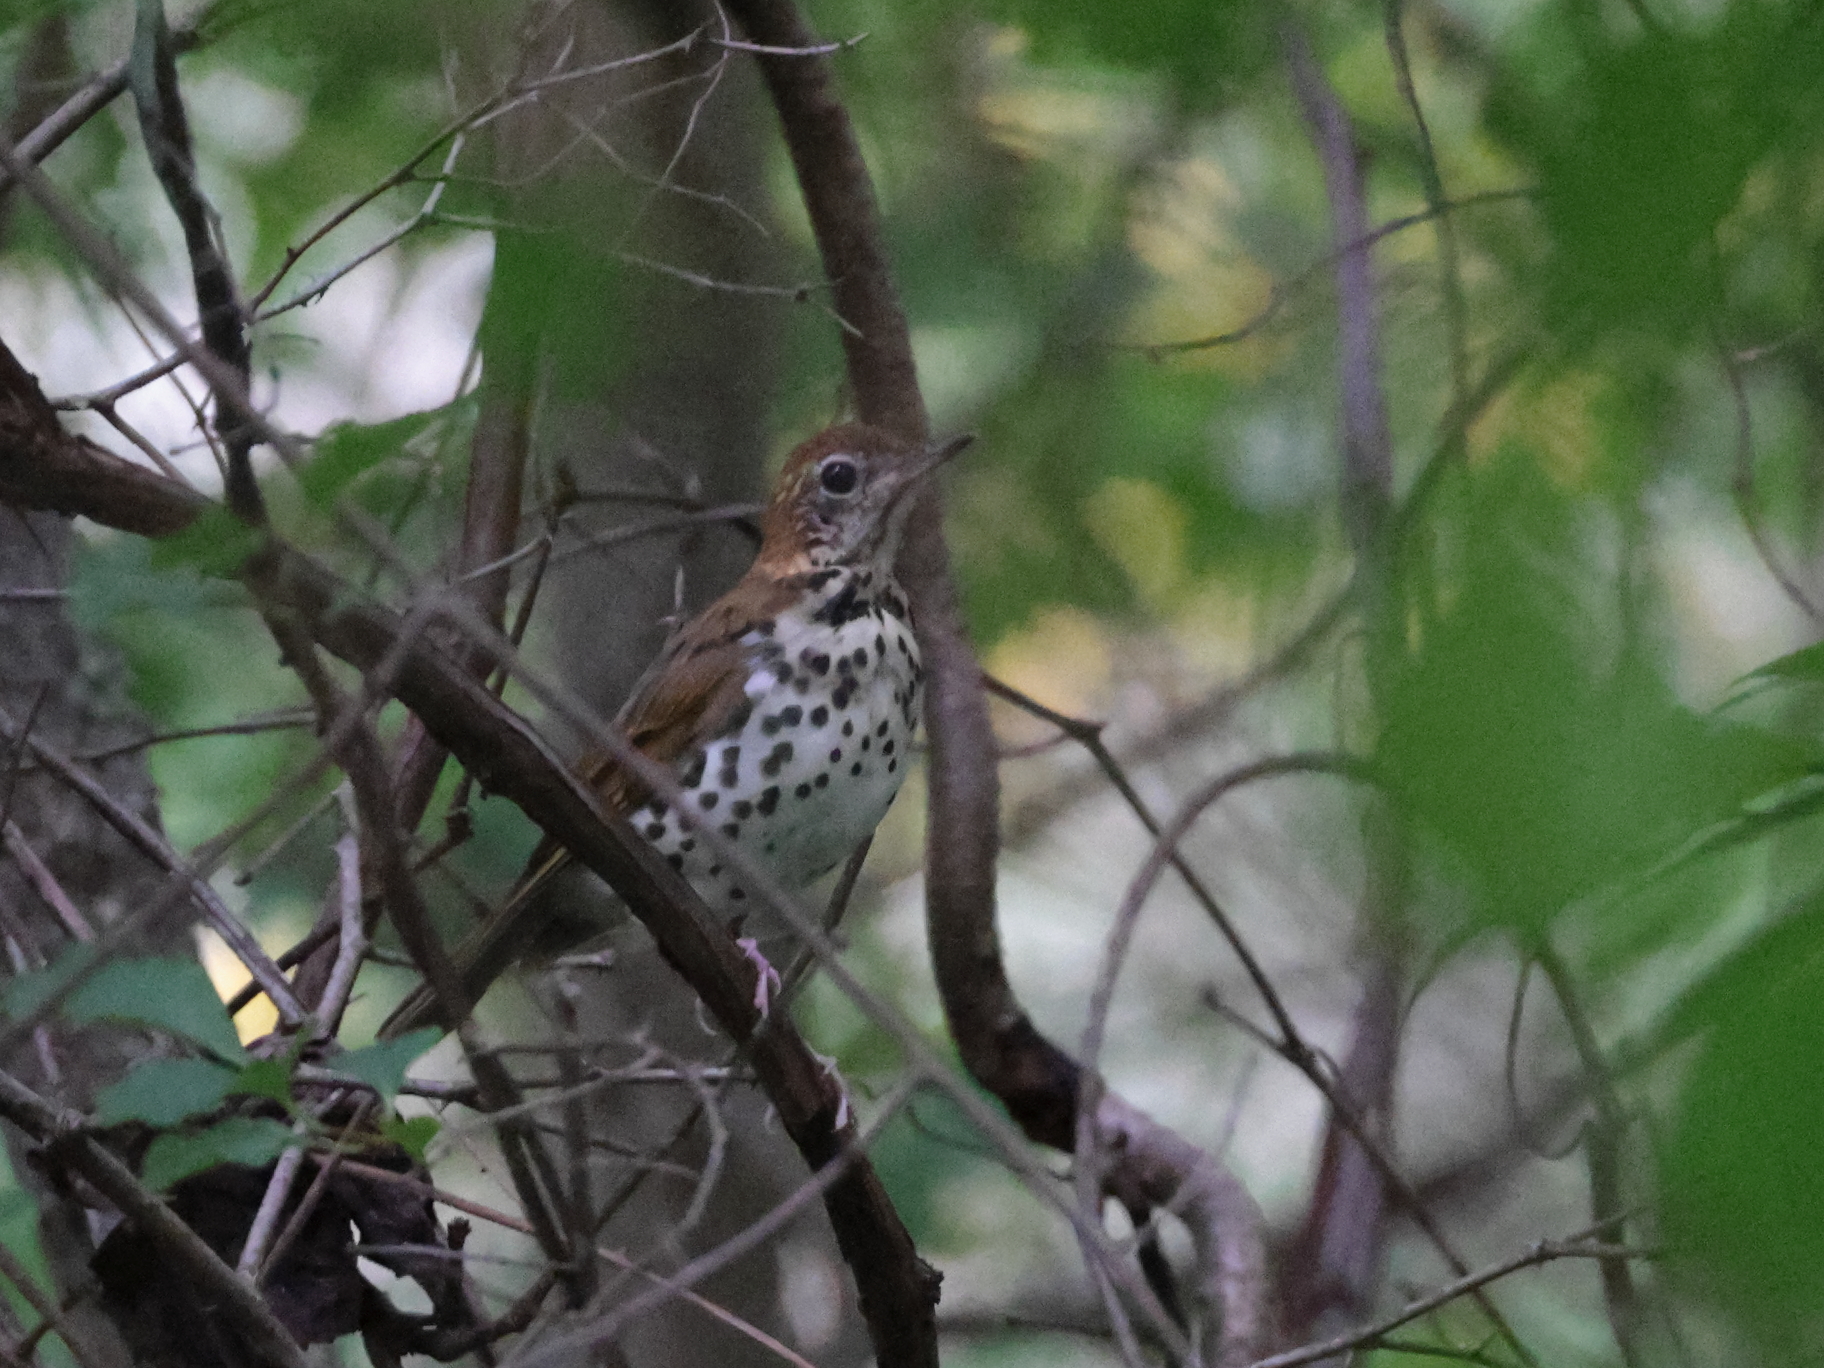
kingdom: Animalia
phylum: Chordata
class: Aves
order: Passeriformes
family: Turdidae
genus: Hylocichla
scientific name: Hylocichla mustelina
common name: Wood thrush
